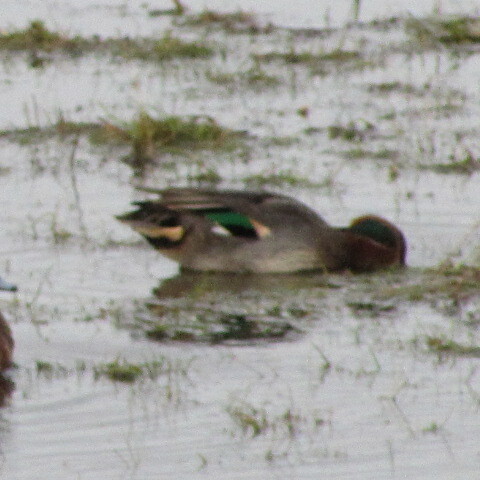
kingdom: Animalia
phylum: Chordata
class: Aves
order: Anseriformes
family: Anatidae
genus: Anas
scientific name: Anas crecca
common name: Eurasian teal
